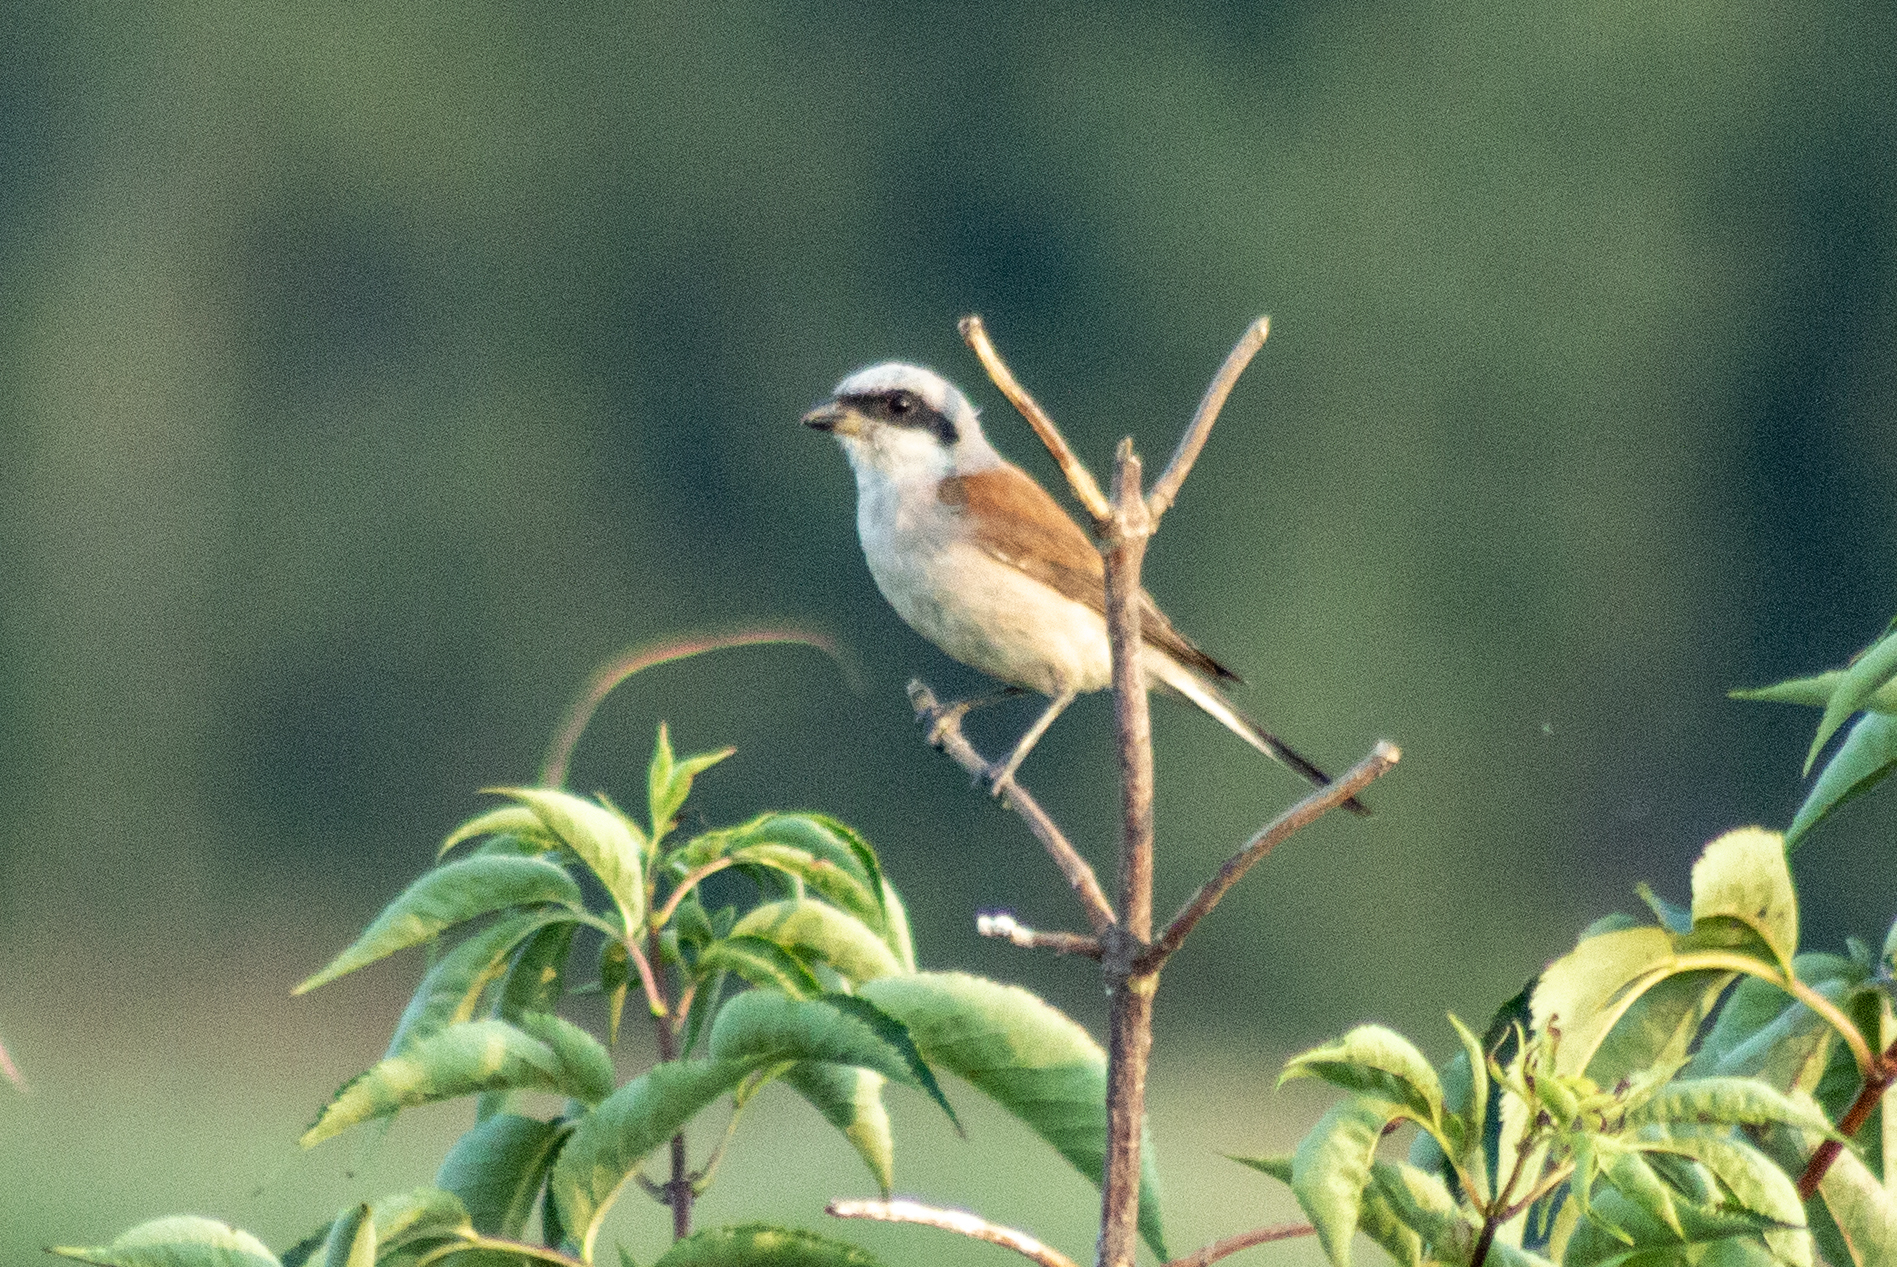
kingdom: Animalia
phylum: Chordata
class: Aves
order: Passeriformes
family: Laniidae
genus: Lanius
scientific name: Lanius collurio
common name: Red-backed shrike
